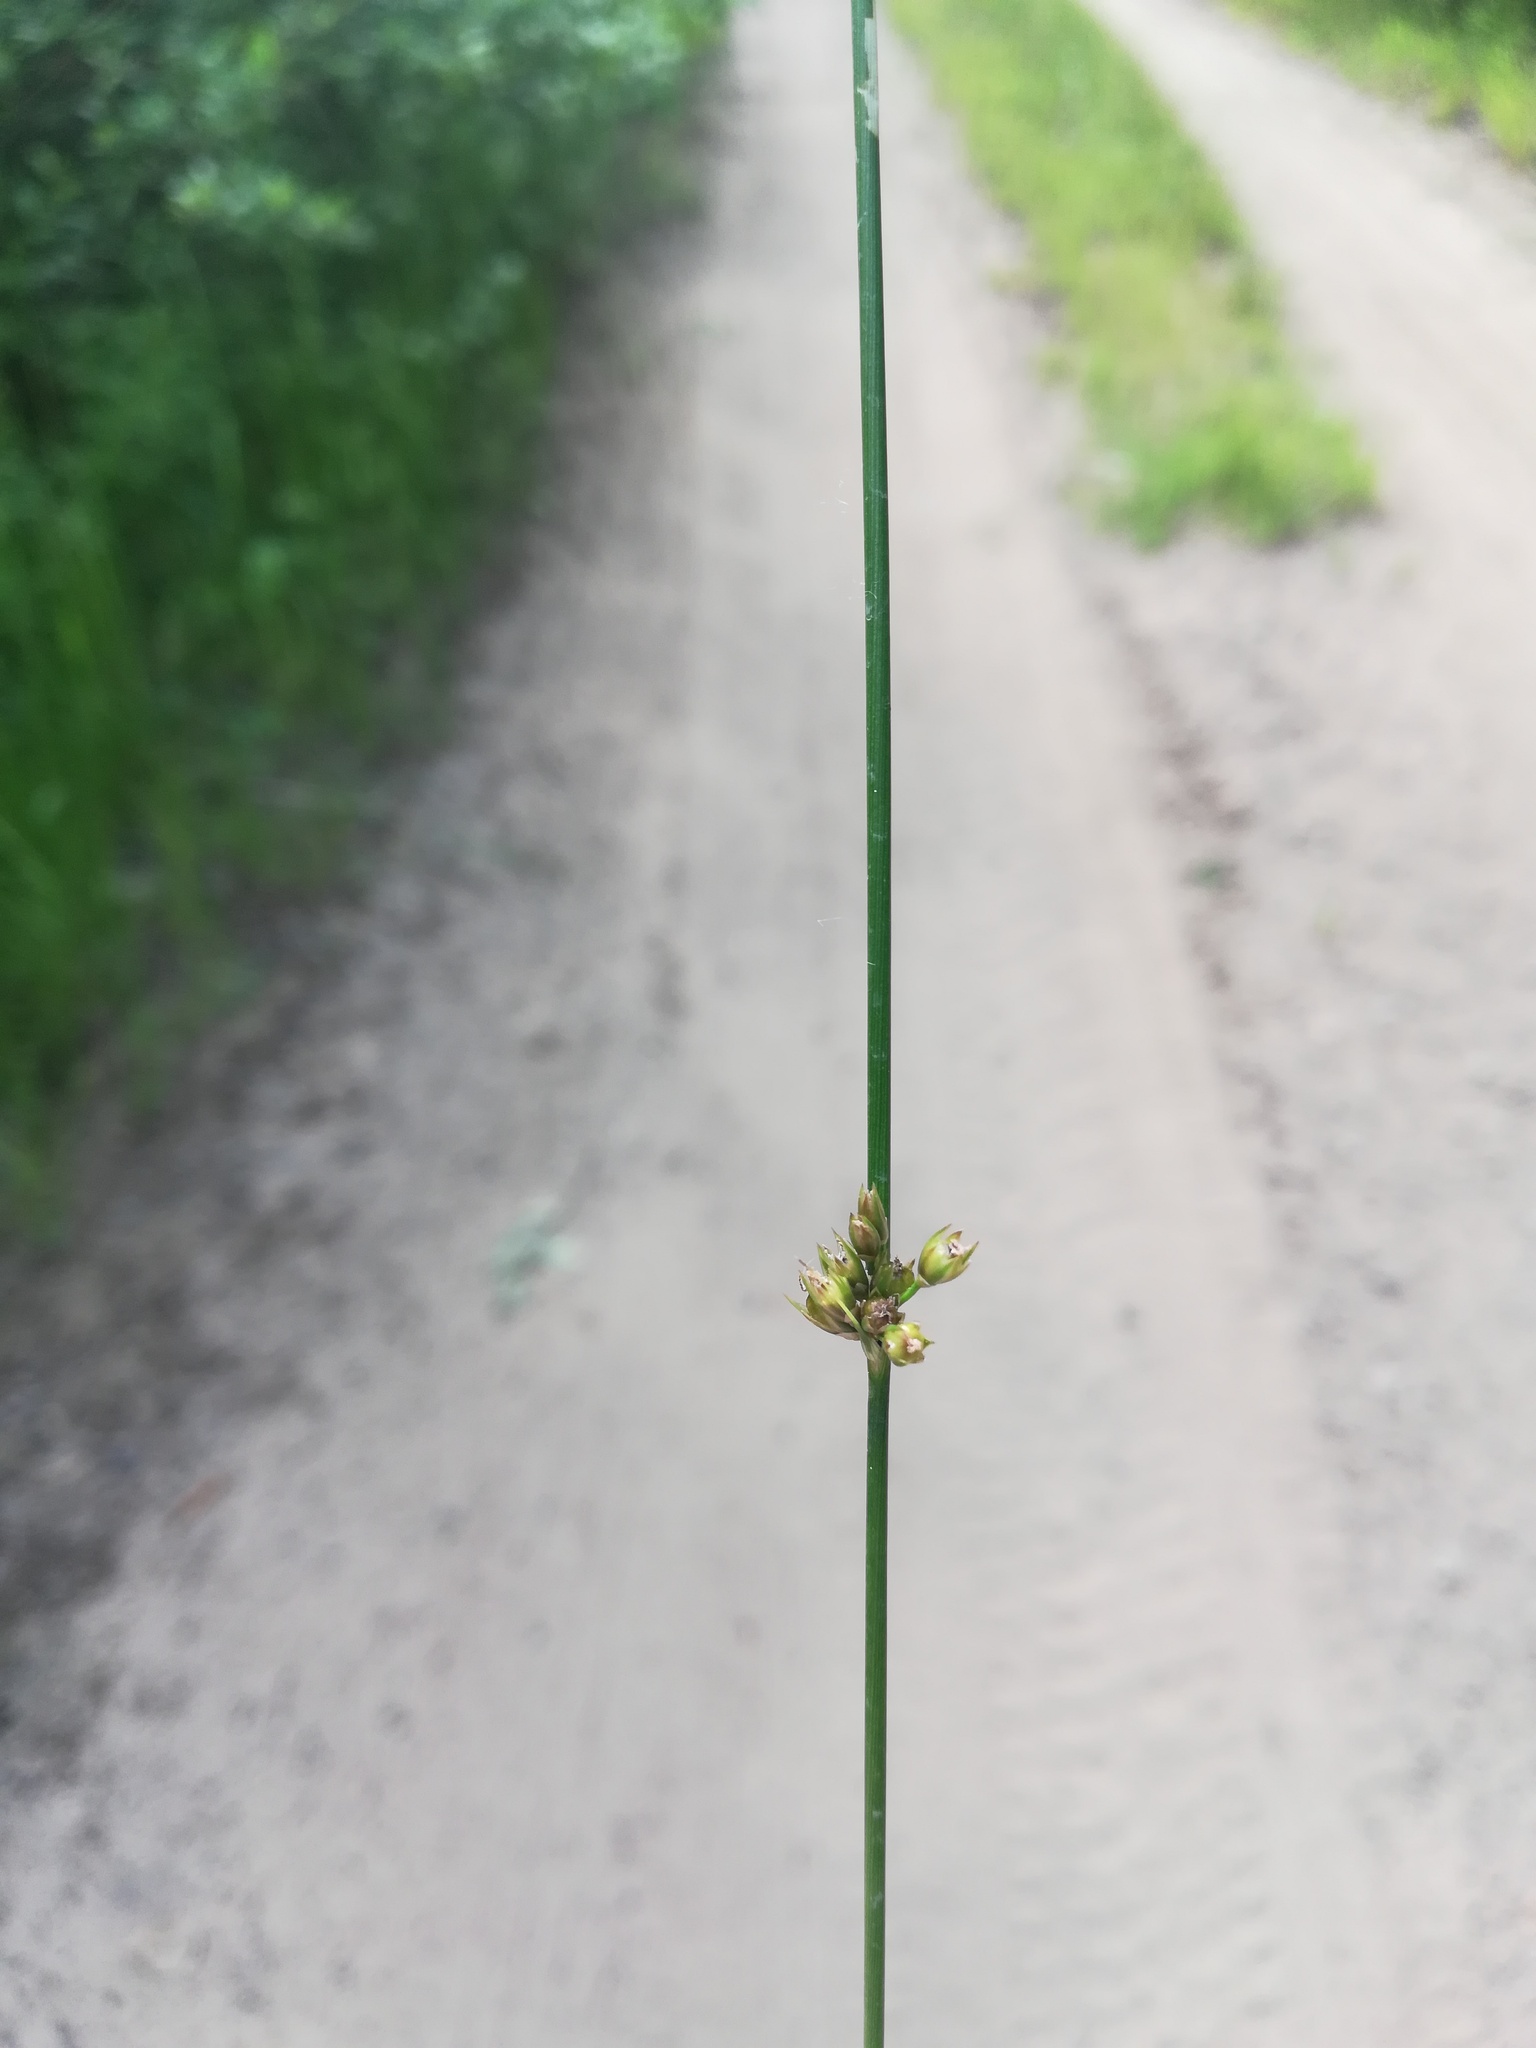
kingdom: Plantae
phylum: Tracheophyta
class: Liliopsida
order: Poales
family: Juncaceae
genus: Juncus
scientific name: Juncus filiformis
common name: Thread rush
